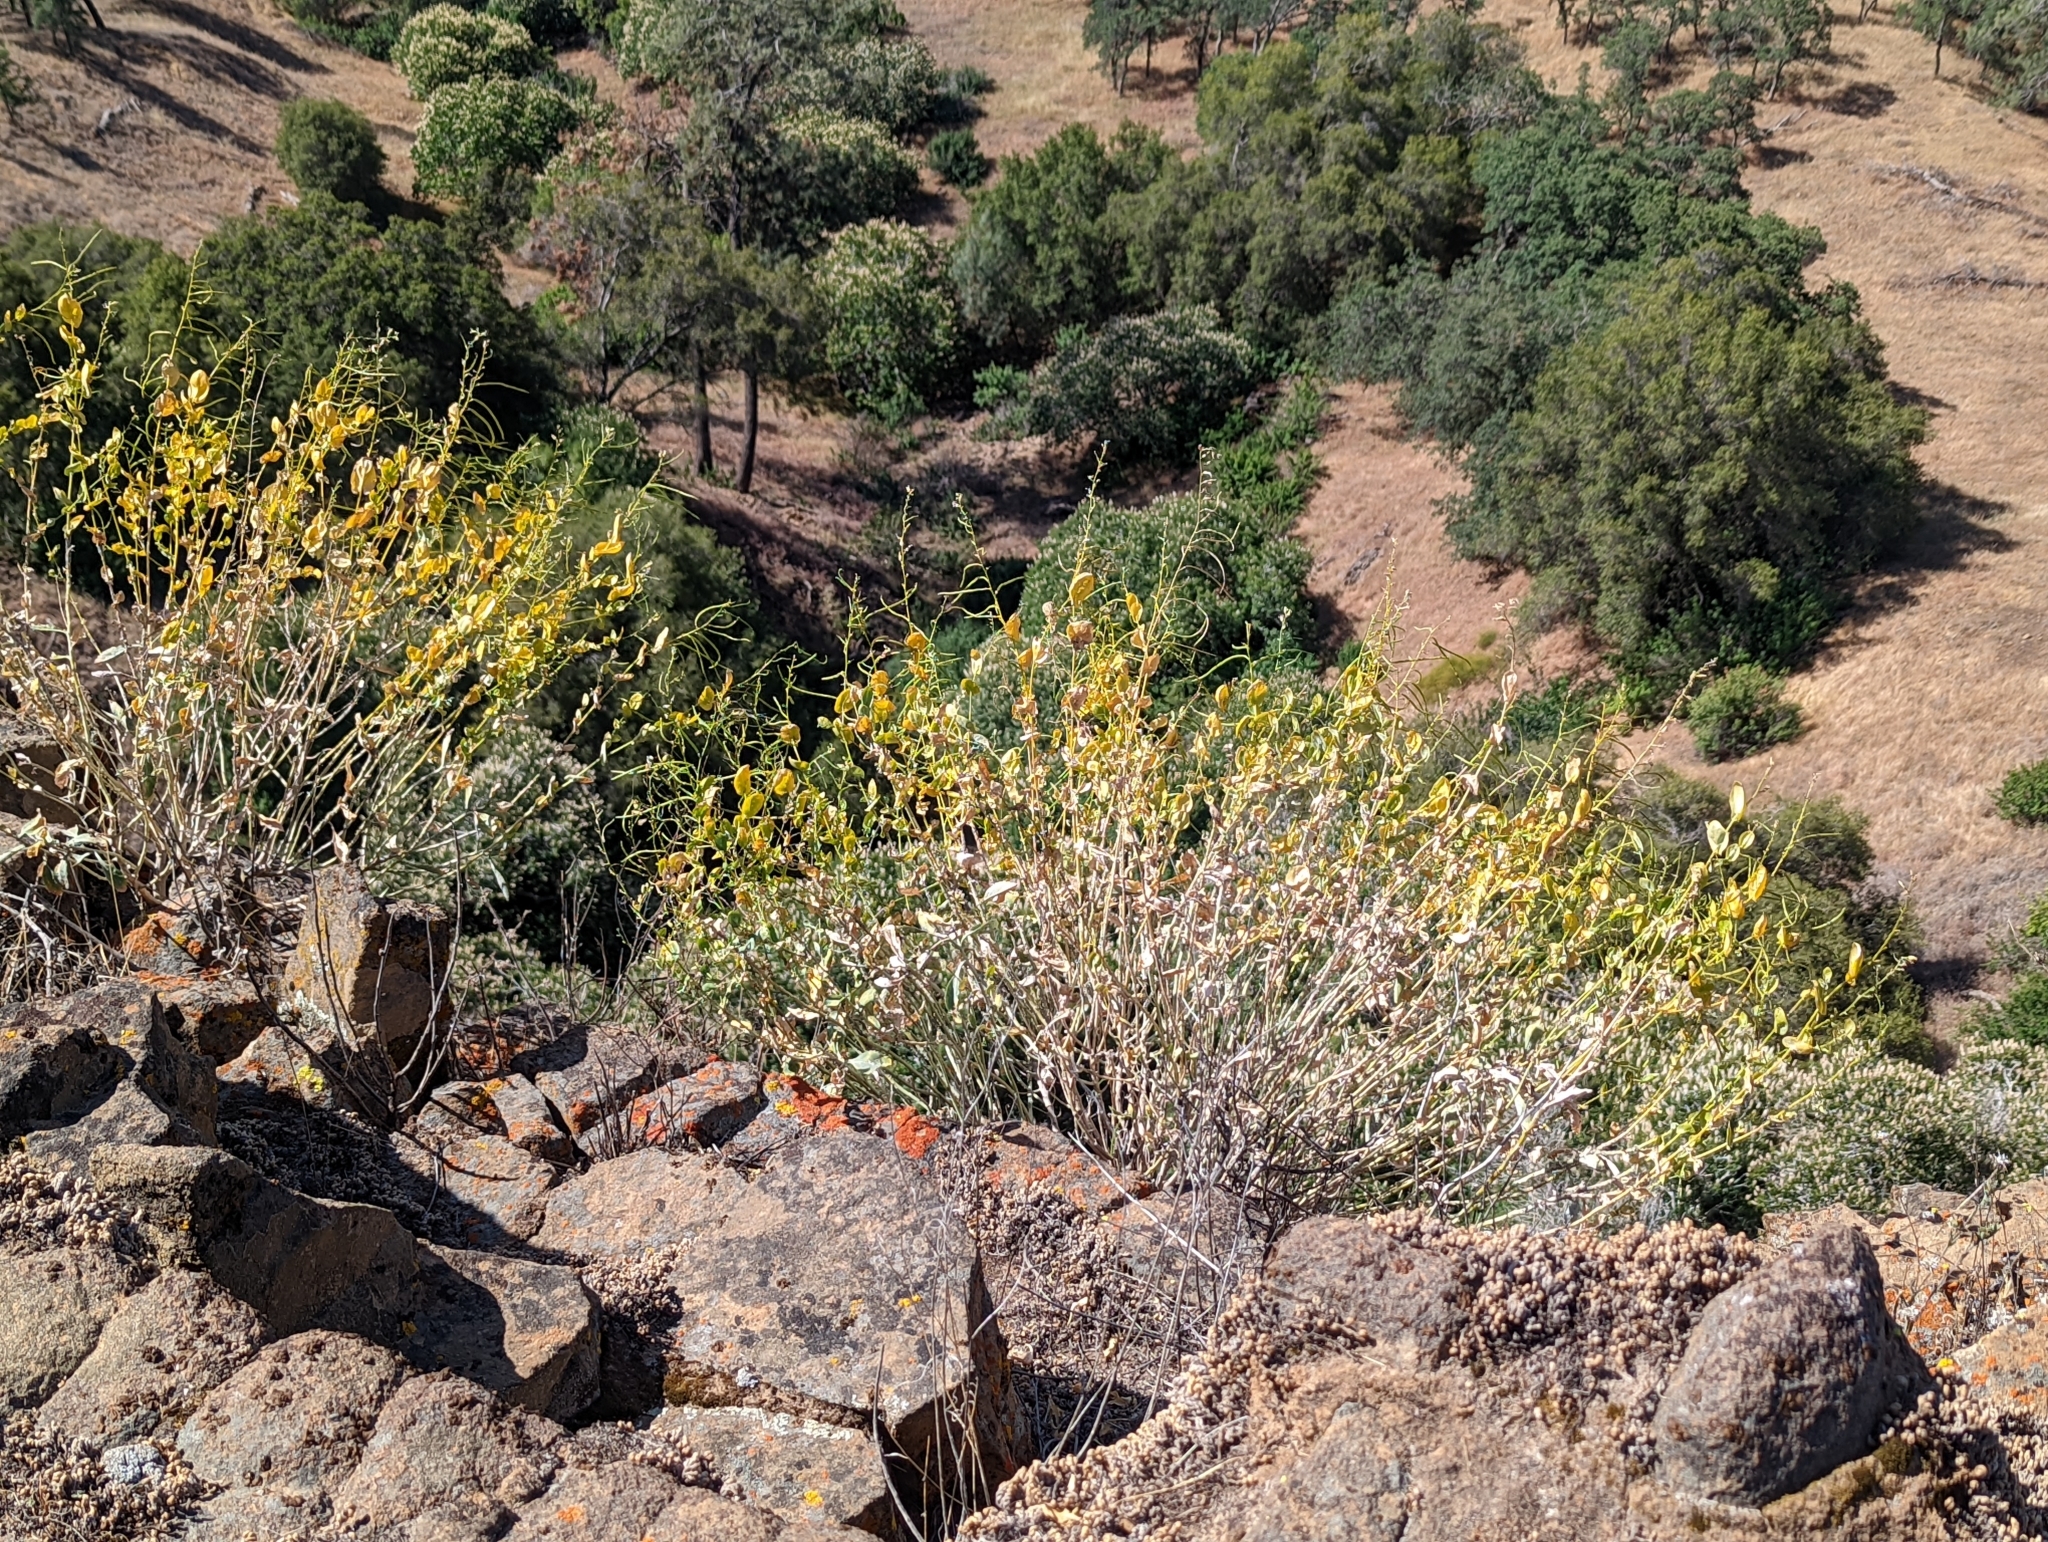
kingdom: Plantae
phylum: Tracheophyta
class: Magnoliopsida
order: Brassicales
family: Brassicaceae
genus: Streptanthus
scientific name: Streptanthus tortuosus
